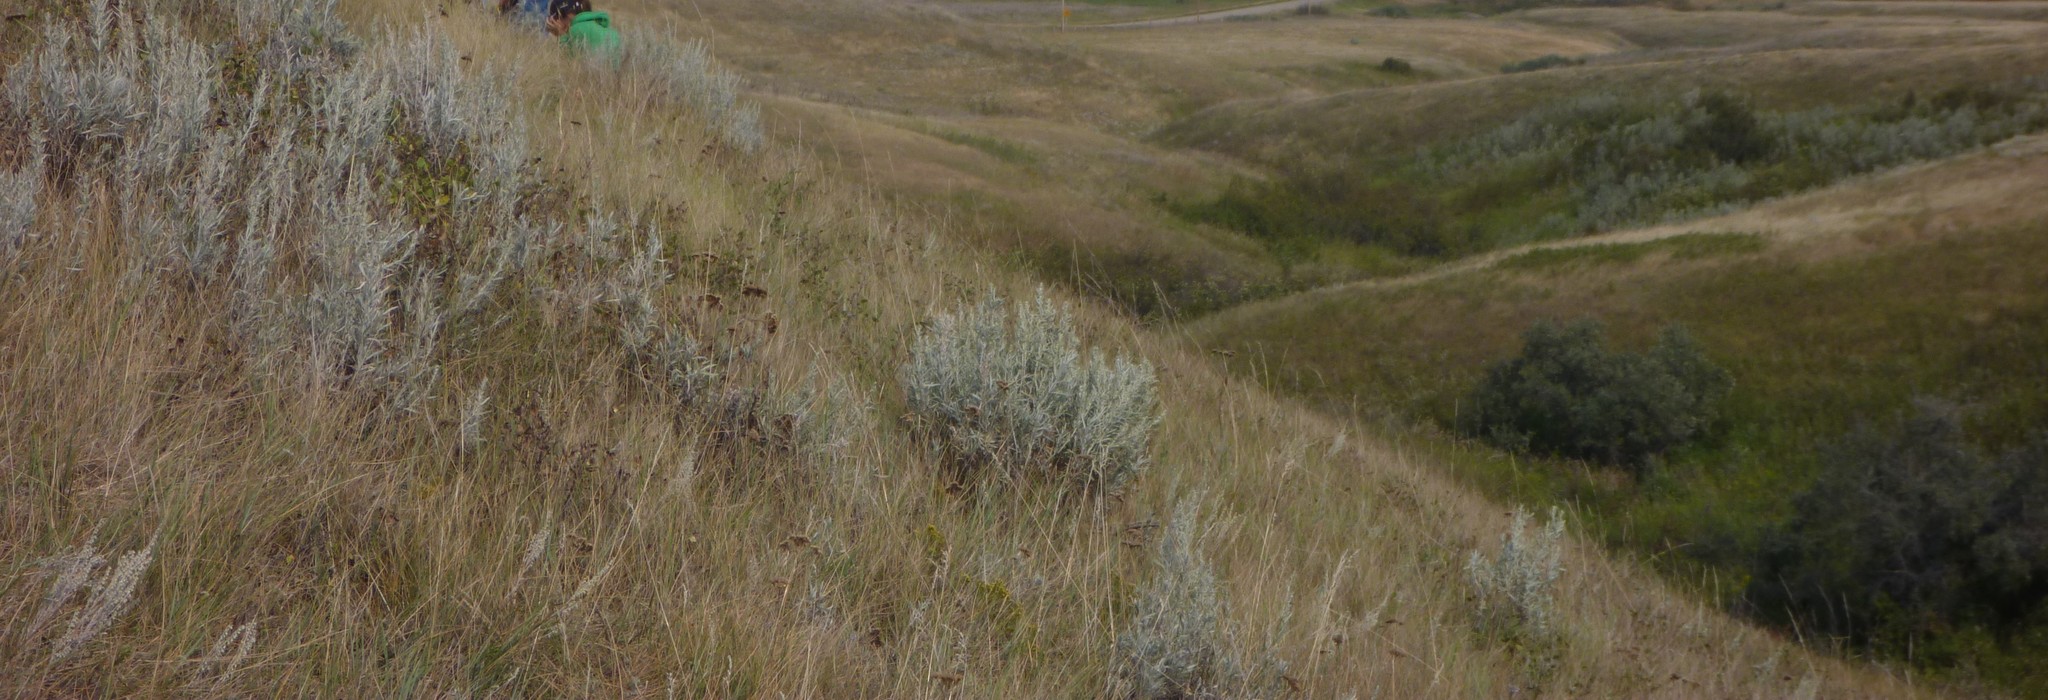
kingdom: Plantae
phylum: Tracheophyta
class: Magnoliopsida
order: Asterales
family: Asteraceae
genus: Artemisia
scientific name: Artemisia cana
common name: Silver sagebrush
